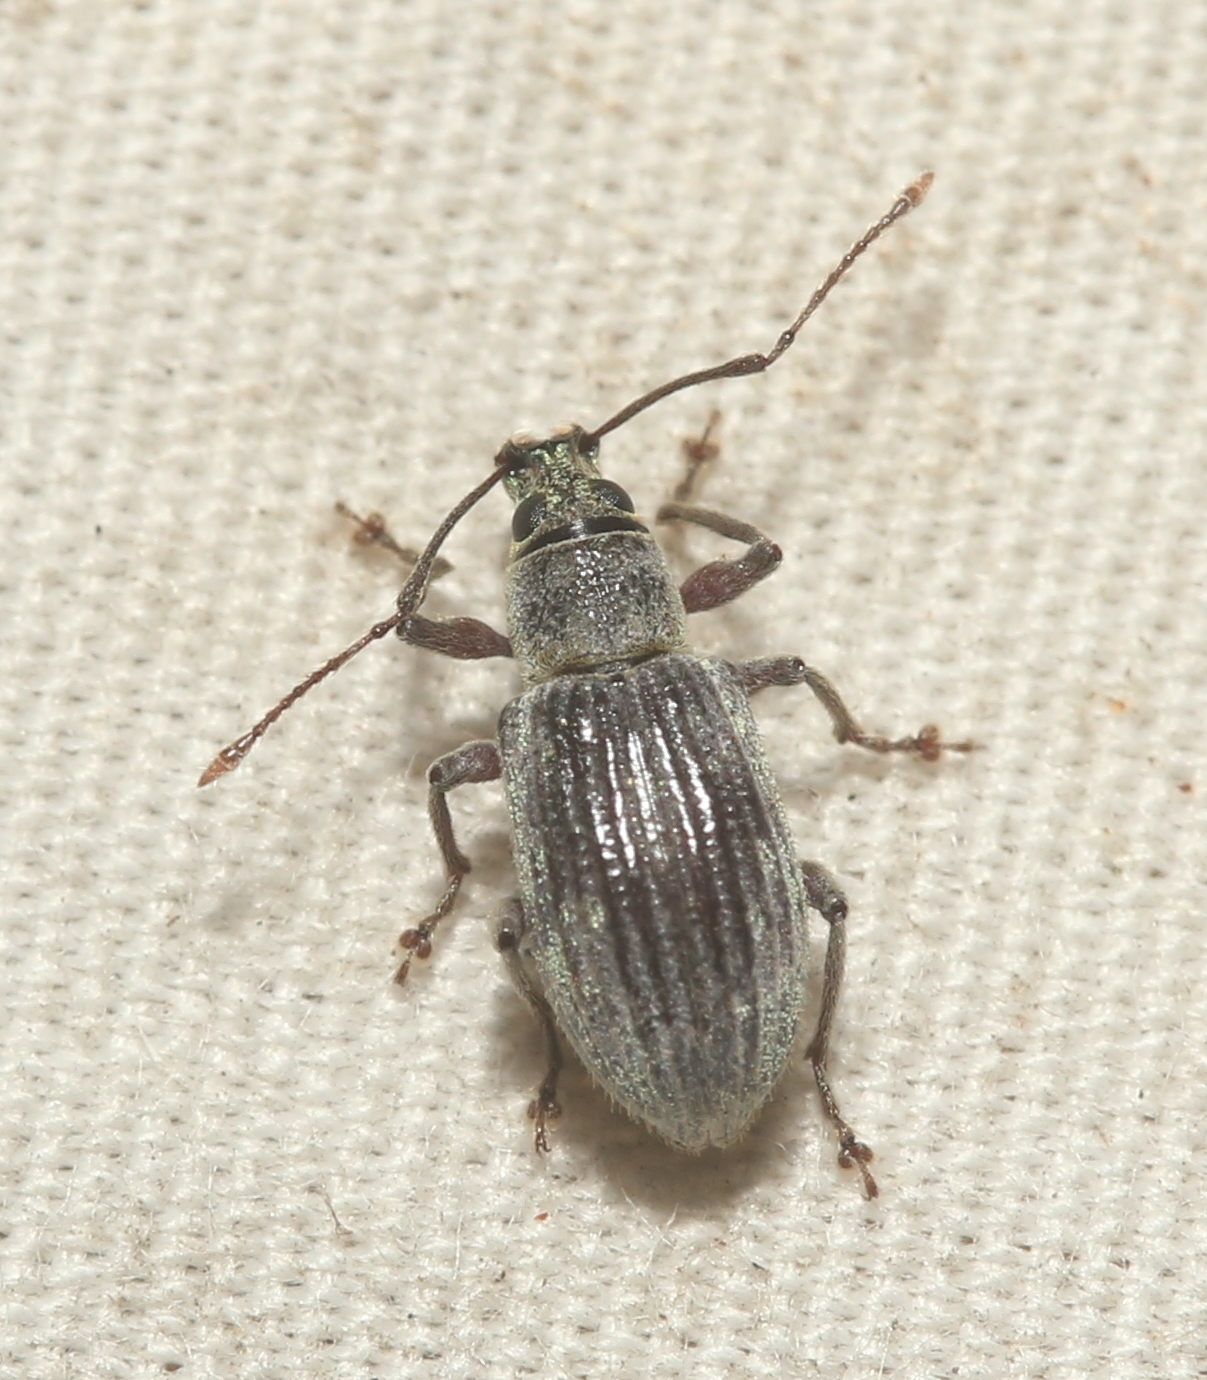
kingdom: Animalia
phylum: Arthropoda
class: Insecta
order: Coleoptera
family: Curculionidae
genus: Cyrtepistomus
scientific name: Cyrtepistomus castaneus
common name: Weevil
